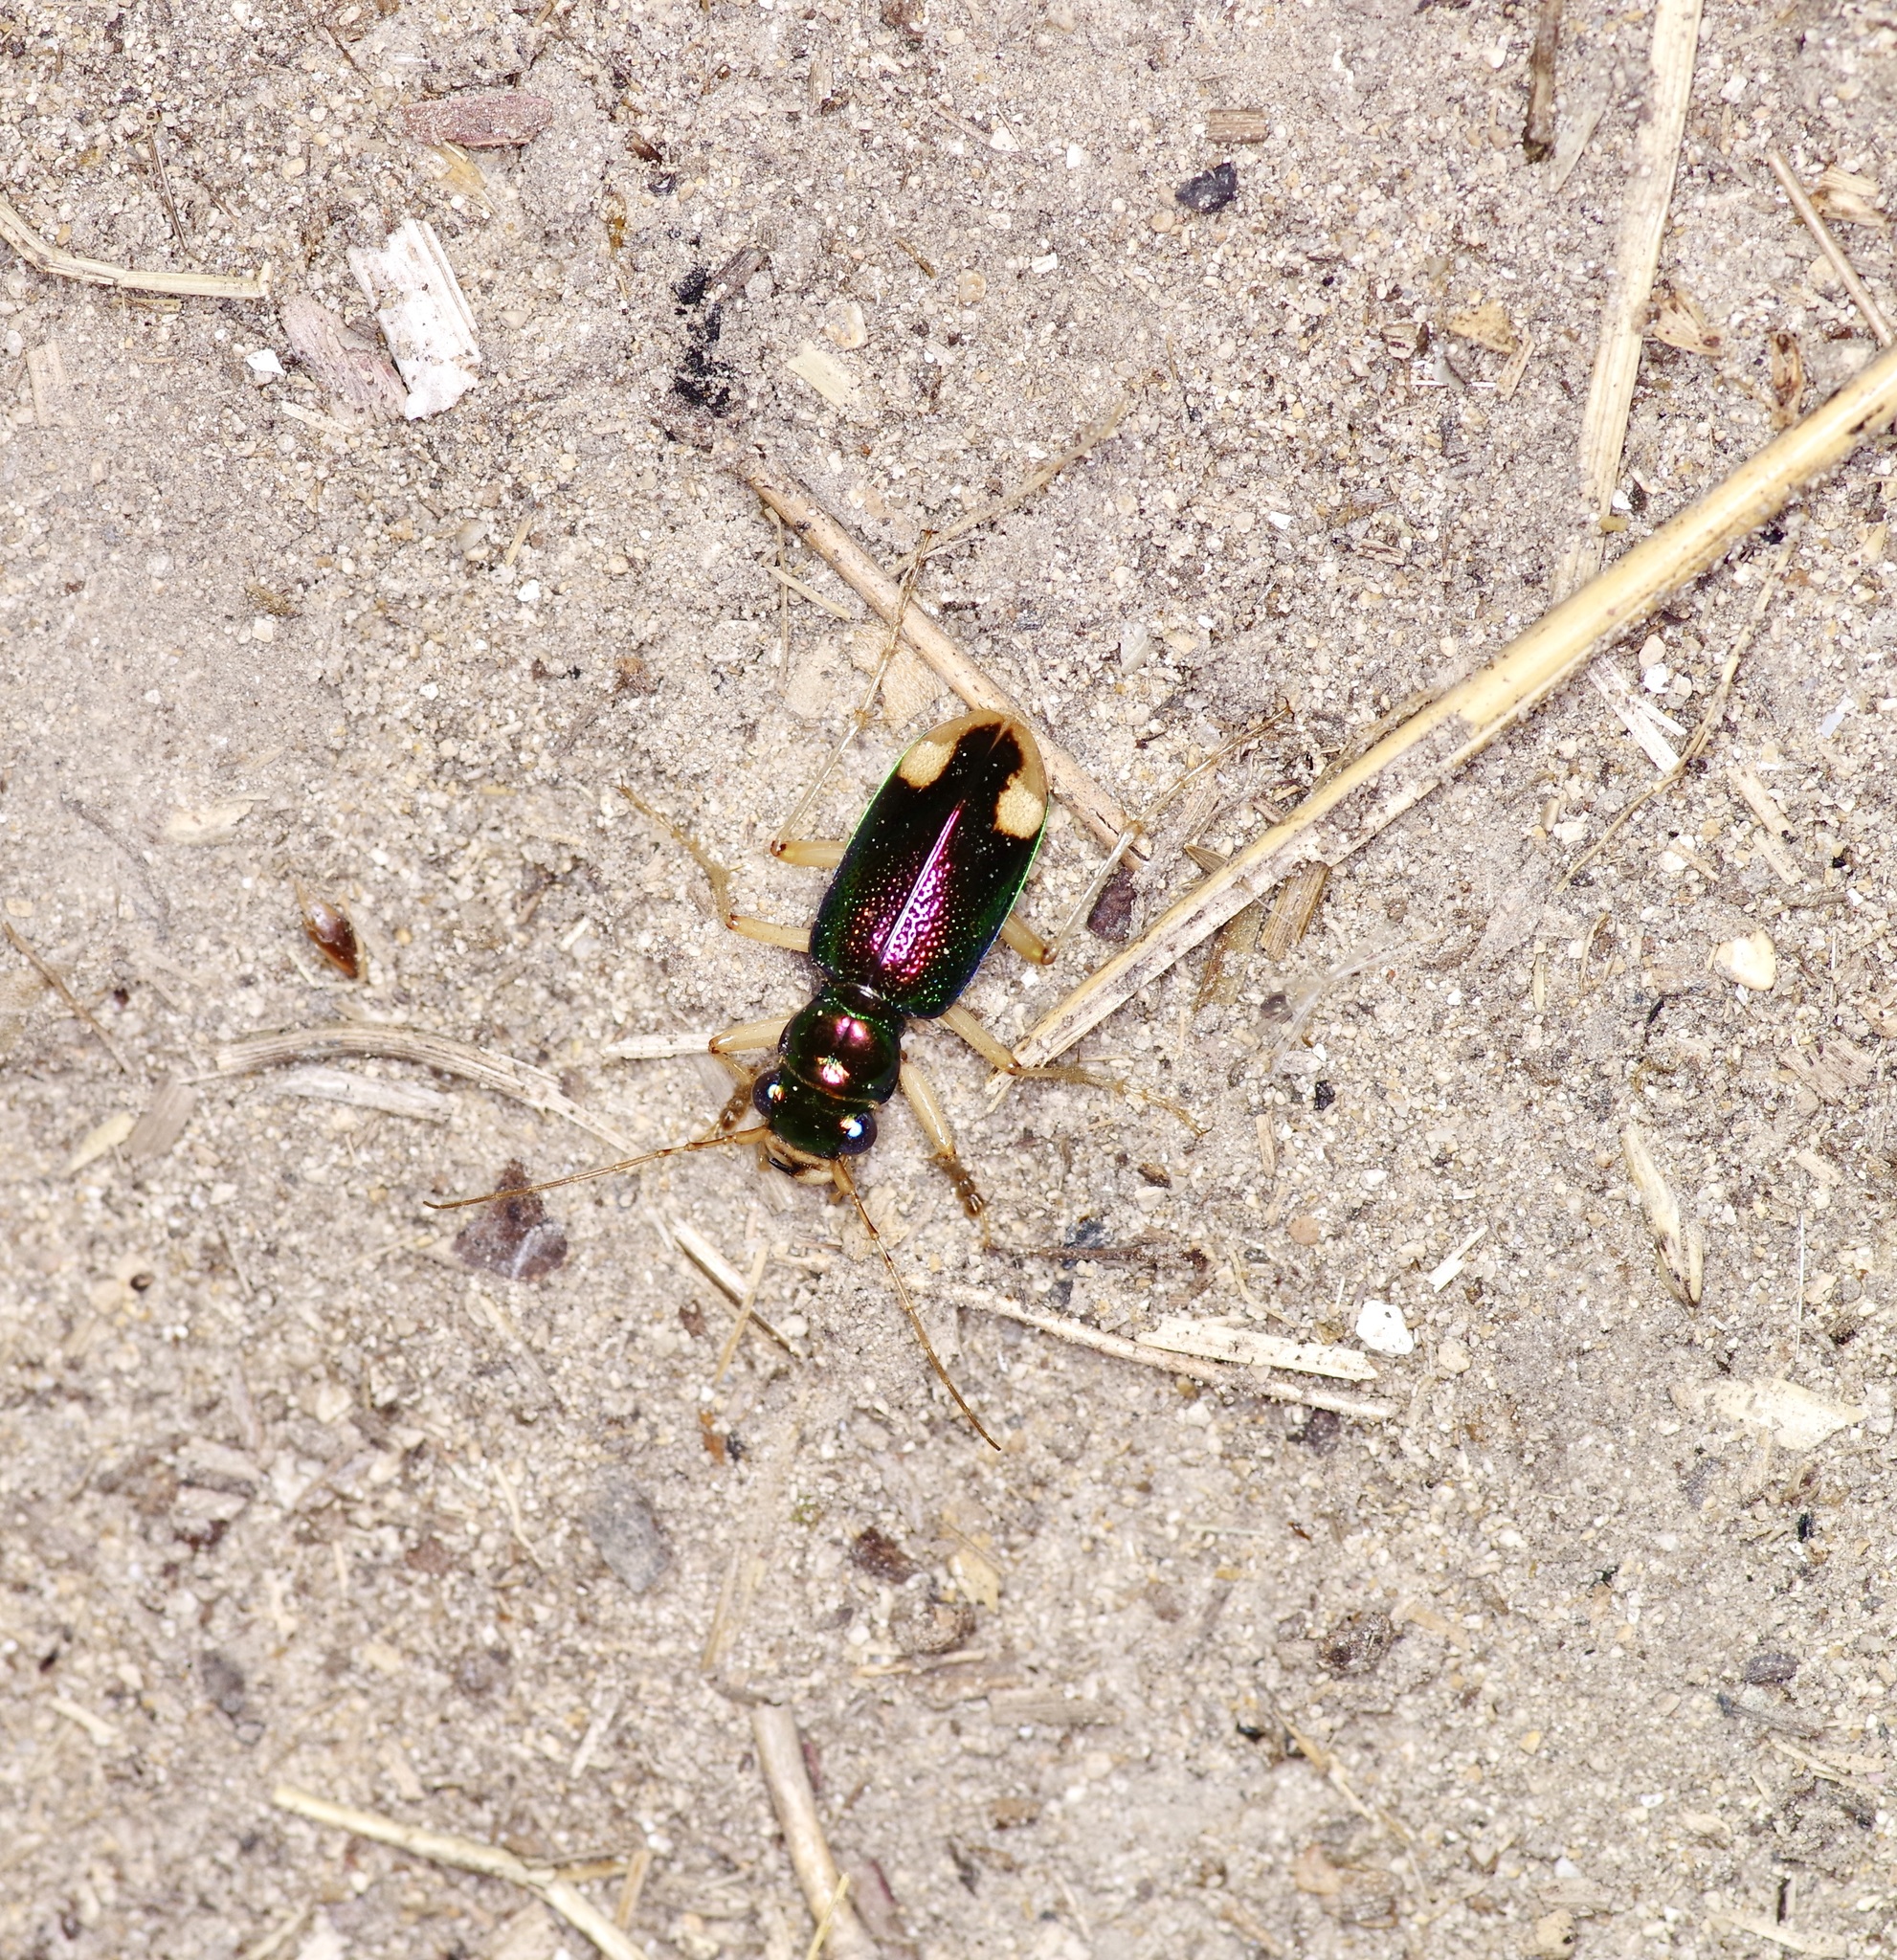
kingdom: Animalia
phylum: Arthropoda
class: Insecta
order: Coleoptera
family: Carabidae
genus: Tetracha
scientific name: Tetracha carolina
